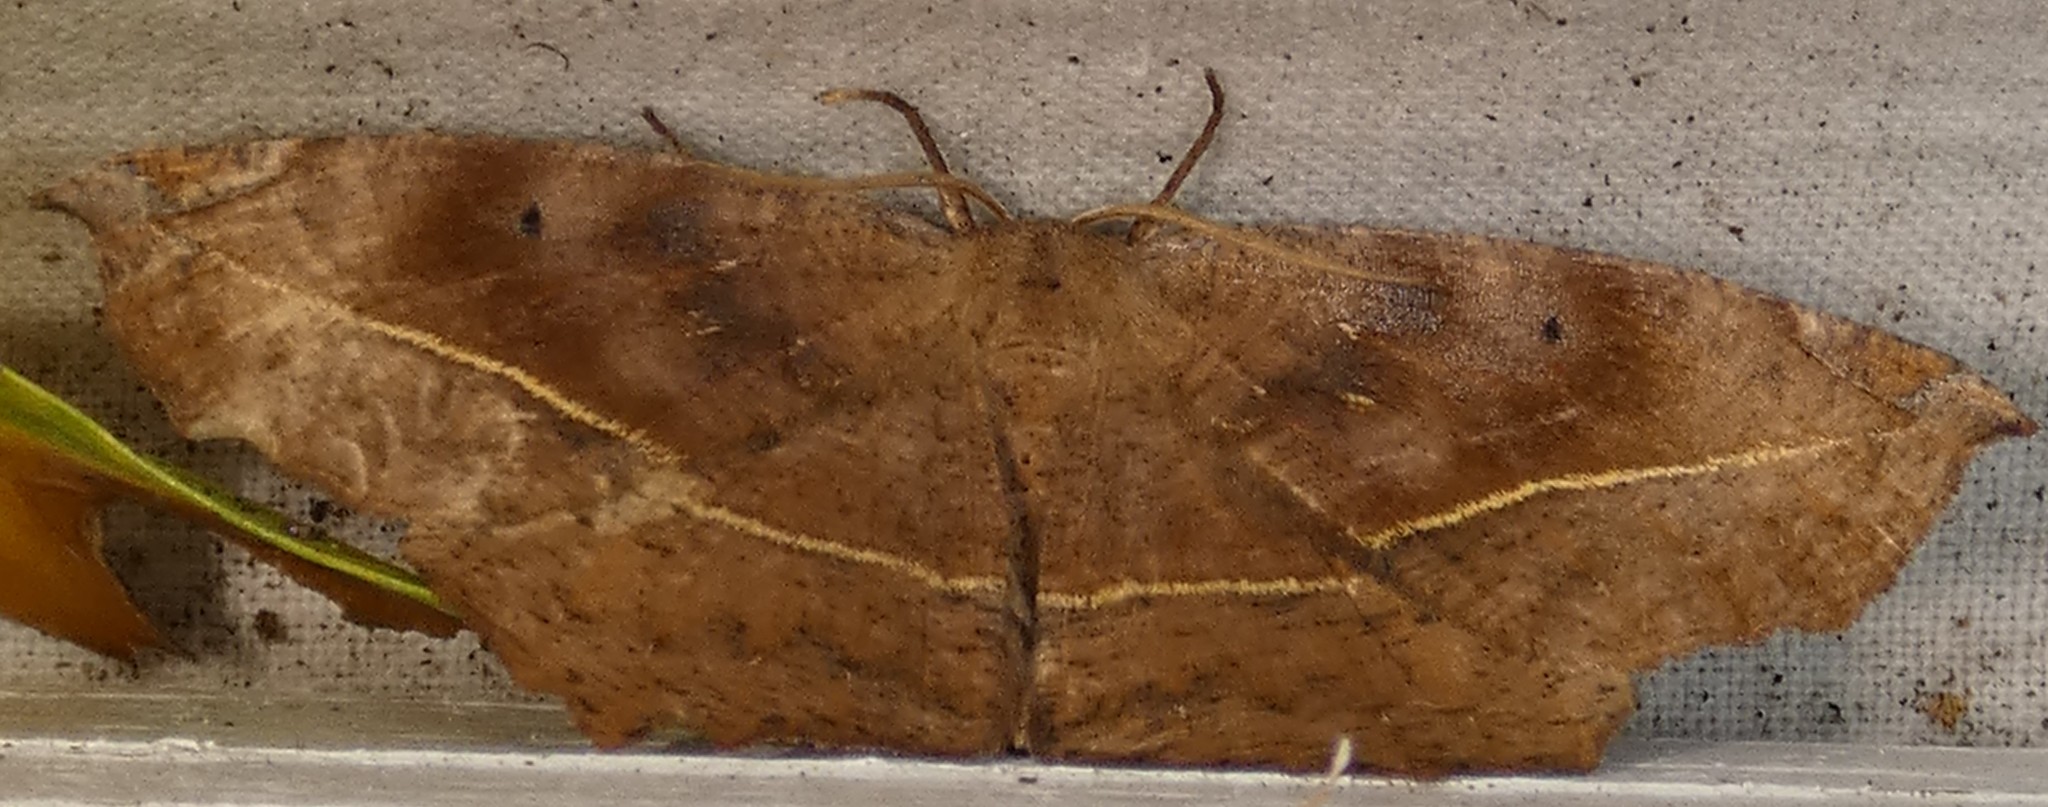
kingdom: Animalia
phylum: Arthropoda
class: Insecta
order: Lepidoptera
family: Geometridae
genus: Eutrapela
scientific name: Eutrapela clemataria
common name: Curved-toothed geometer
